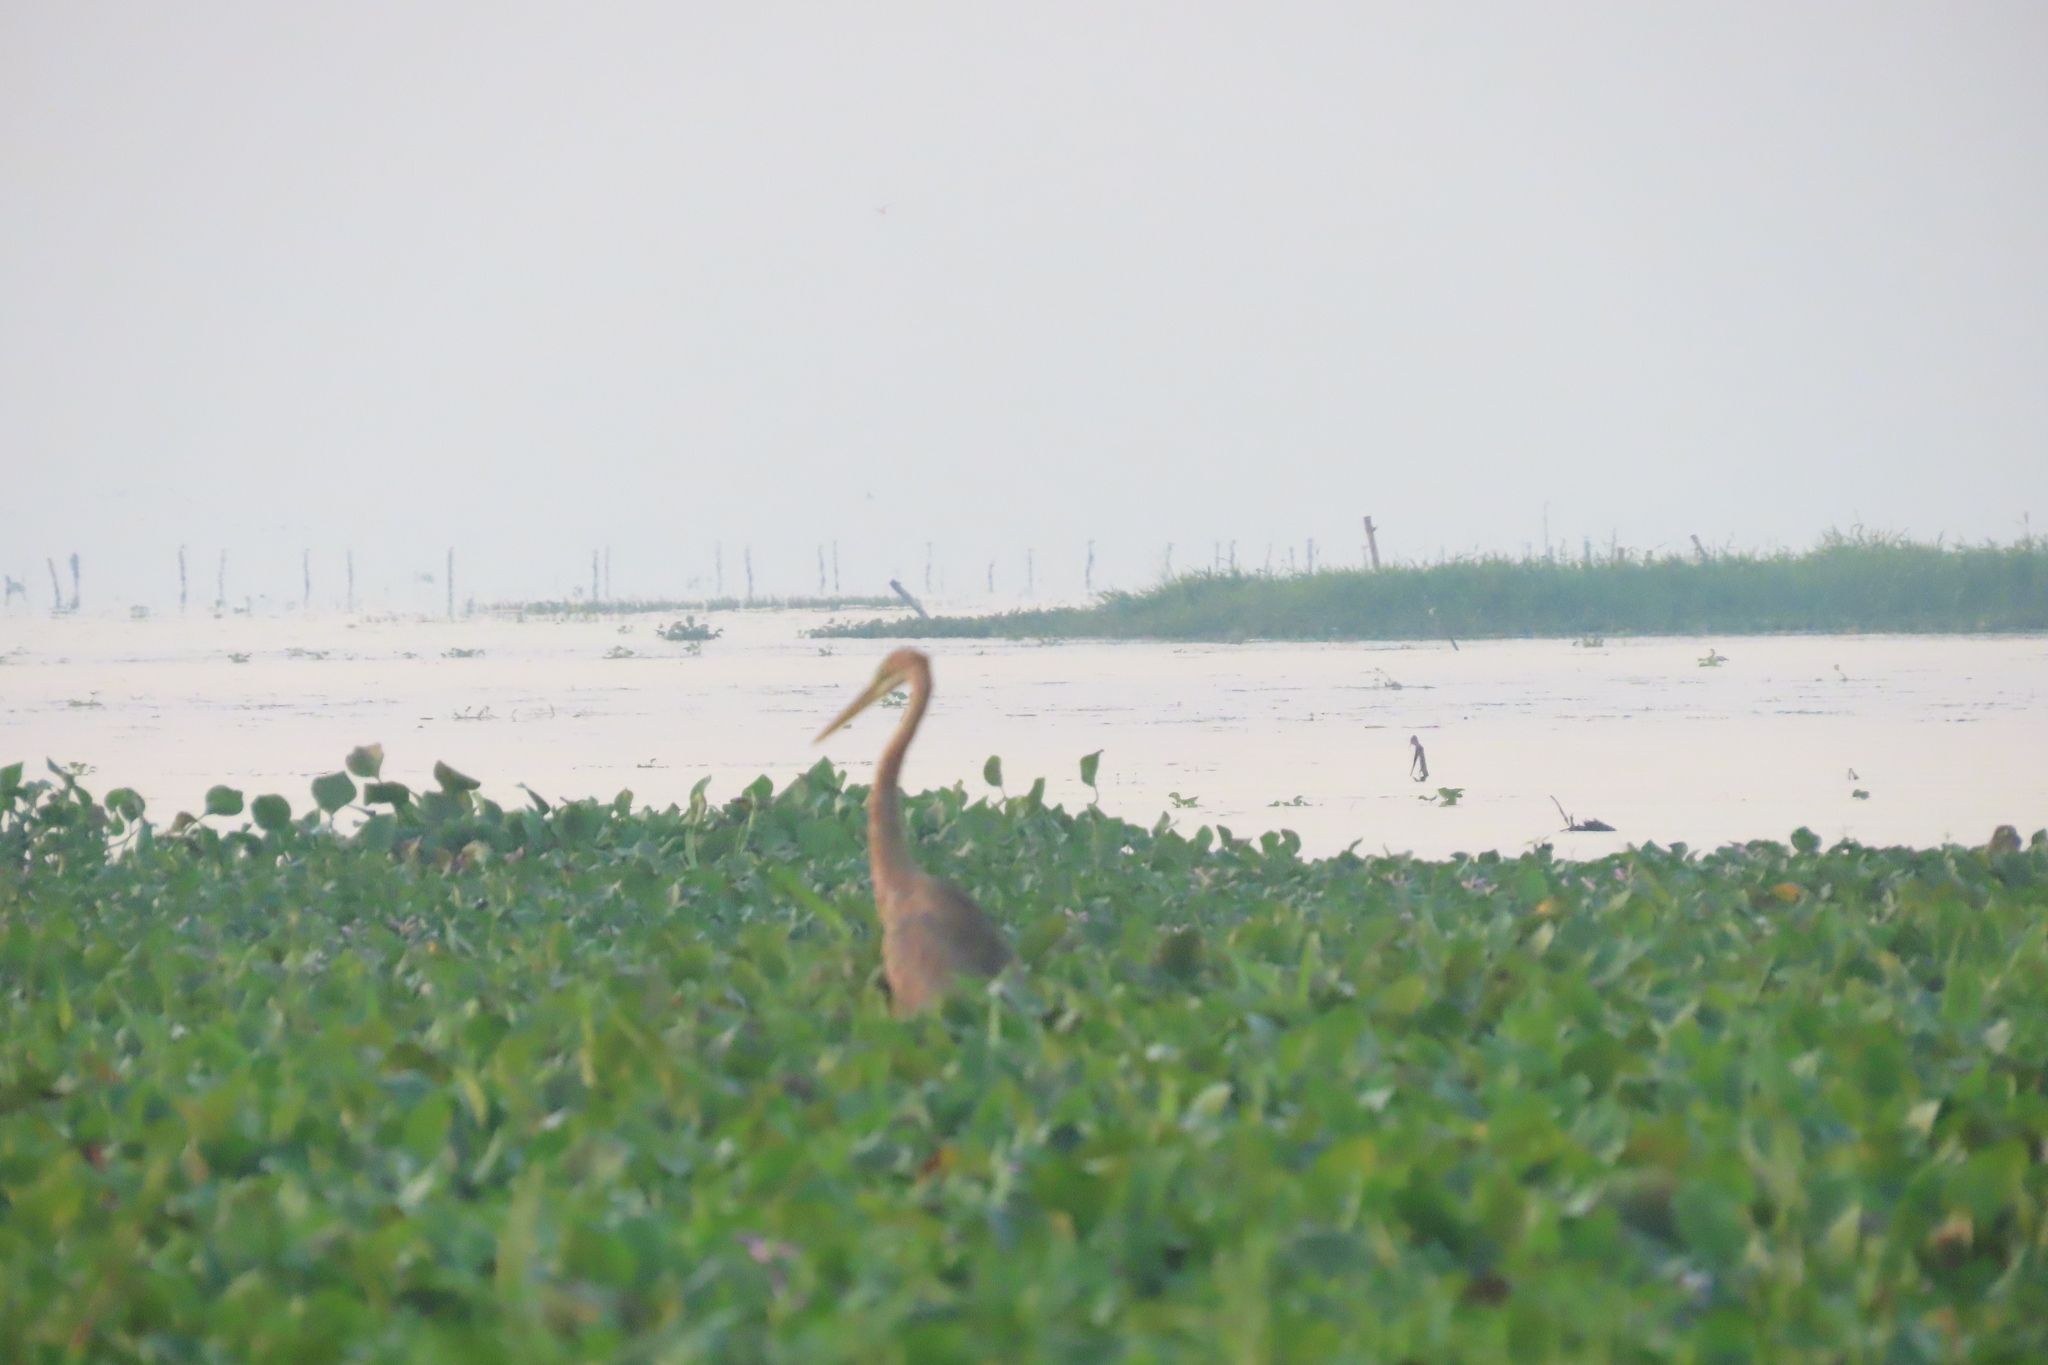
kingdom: Animalia
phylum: Chordata
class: Aves
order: Pelecaniformes
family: Ardeidae
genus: Ardea
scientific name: Ardea purpurea
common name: Purple heron
